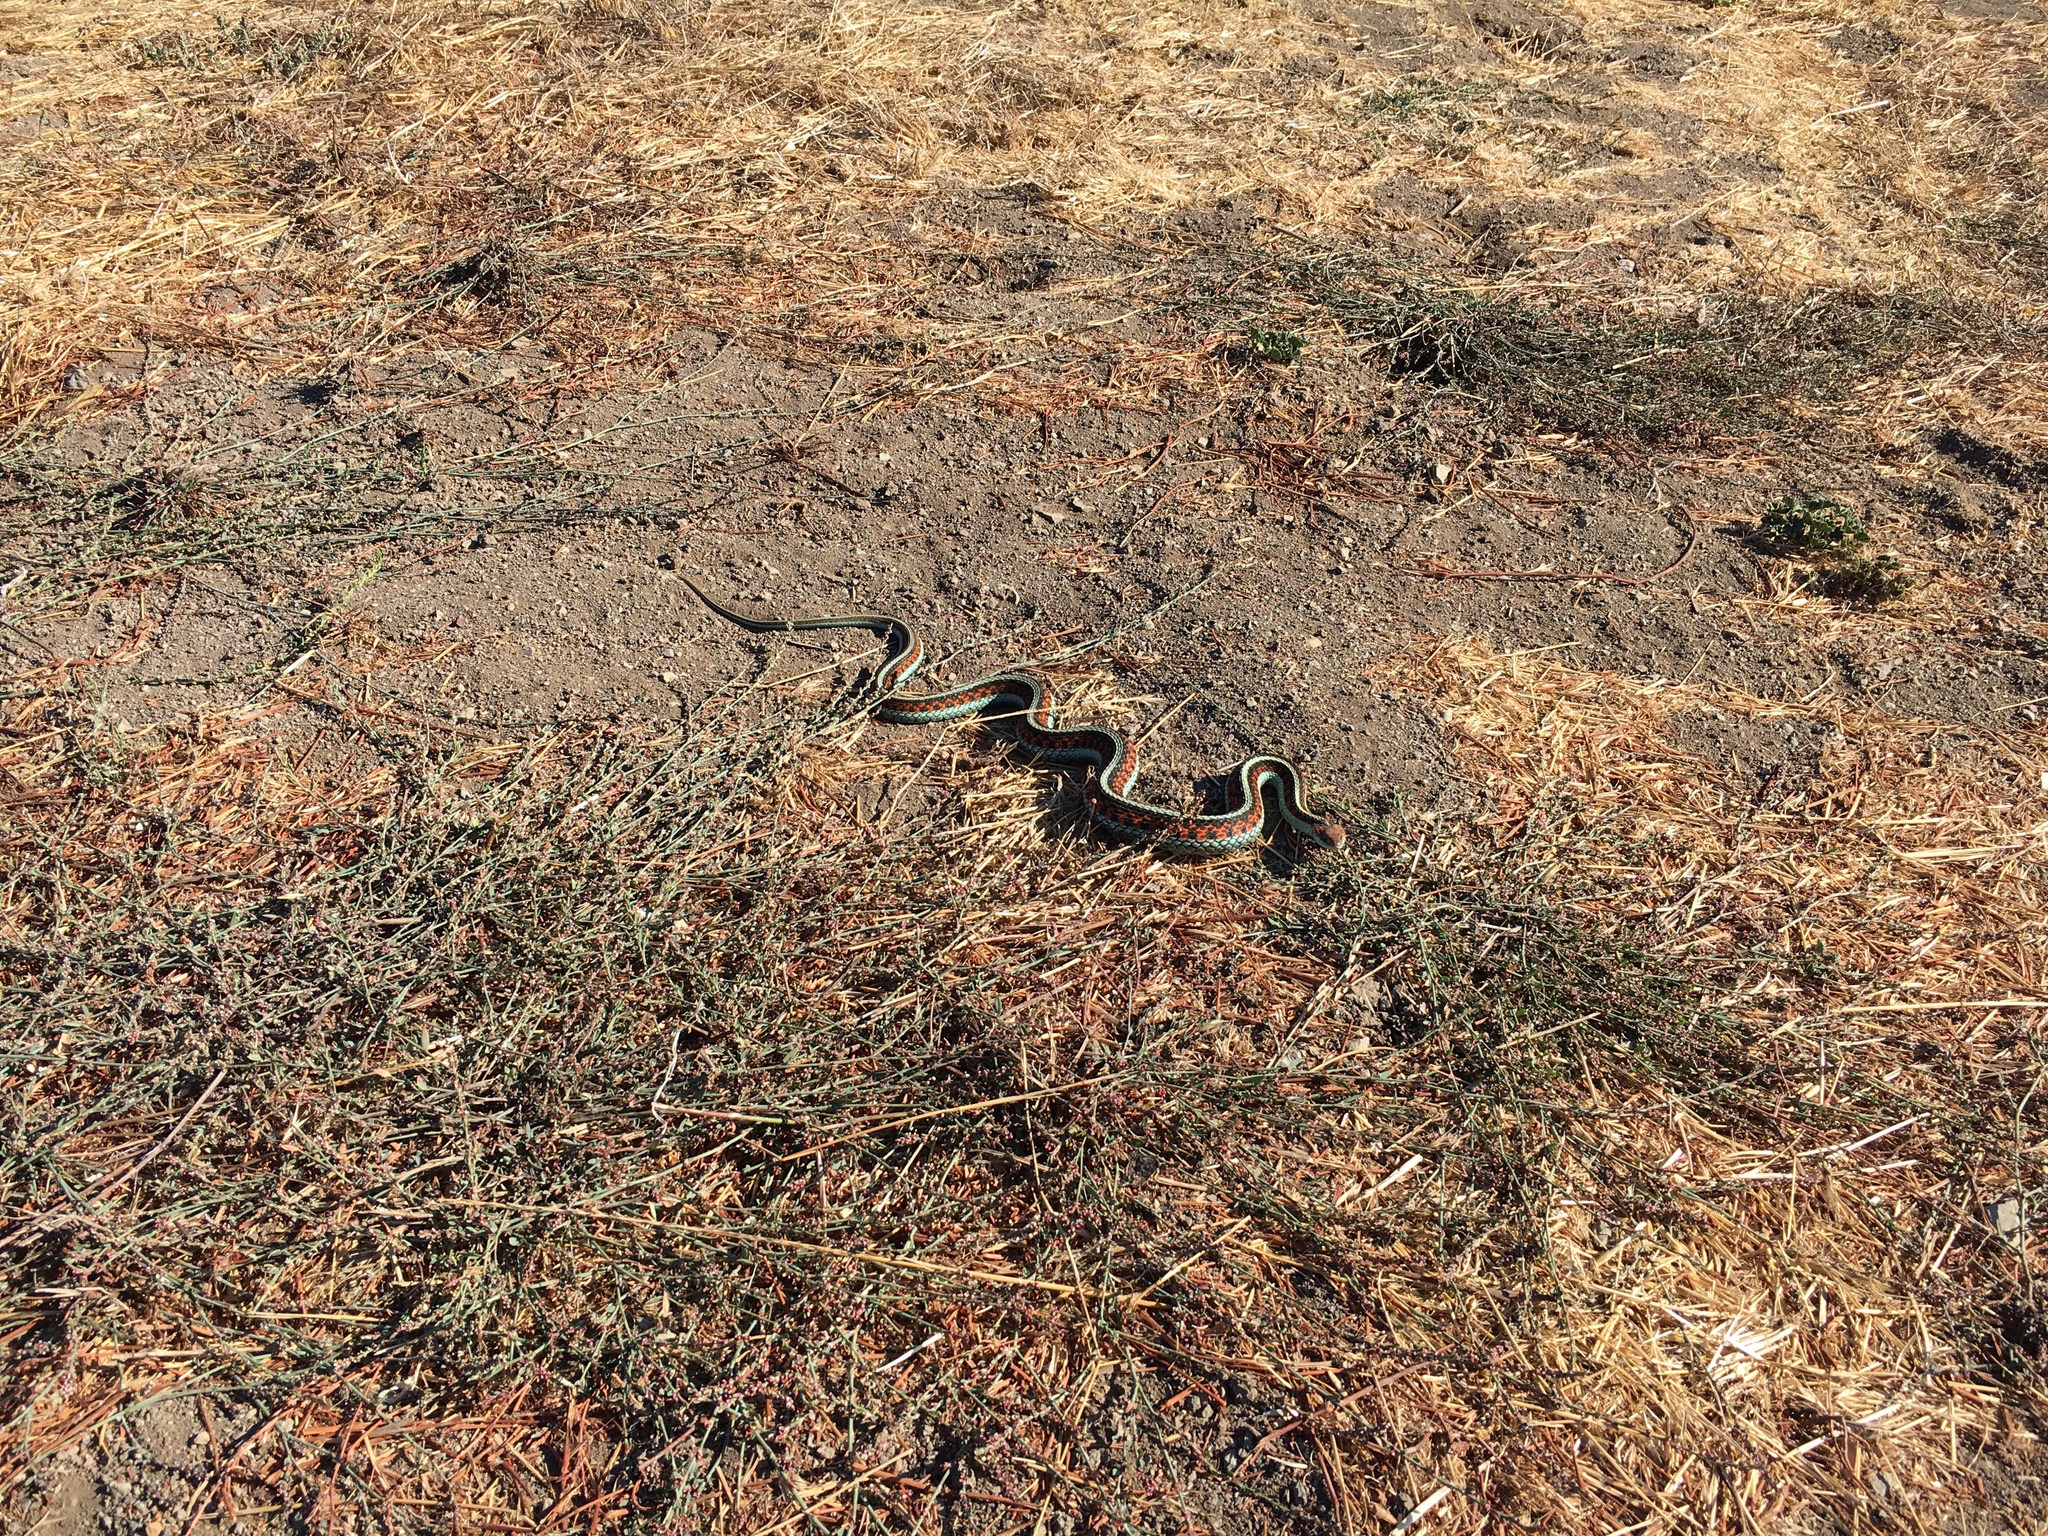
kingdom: Animalia
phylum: Chordata
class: Squamata
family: Colubridae
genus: Thamnophis
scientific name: Thamnophis sirtalis
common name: Common garter snake
